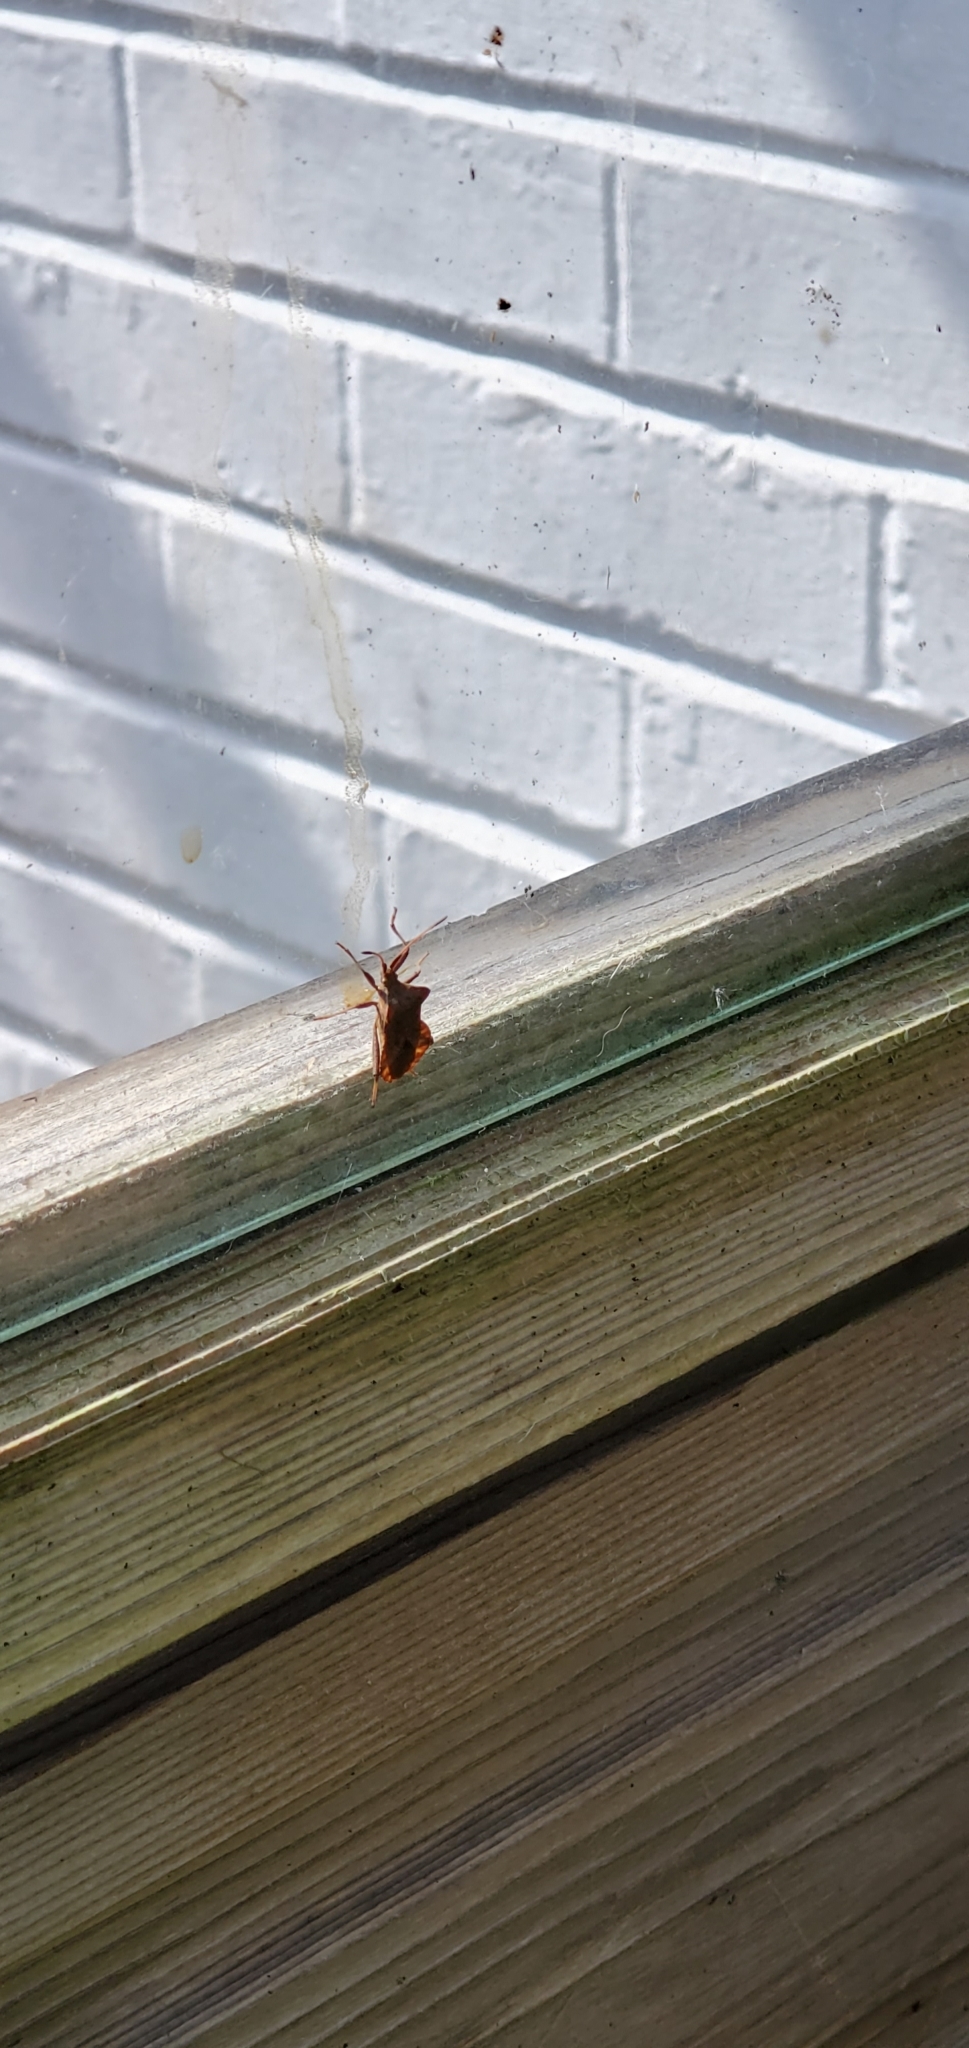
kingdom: Animalia
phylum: Arthropoda
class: Insecta
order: Hemiptera
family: Coreidae
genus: Coreus
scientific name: Coreus marginatus
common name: Dock bug
